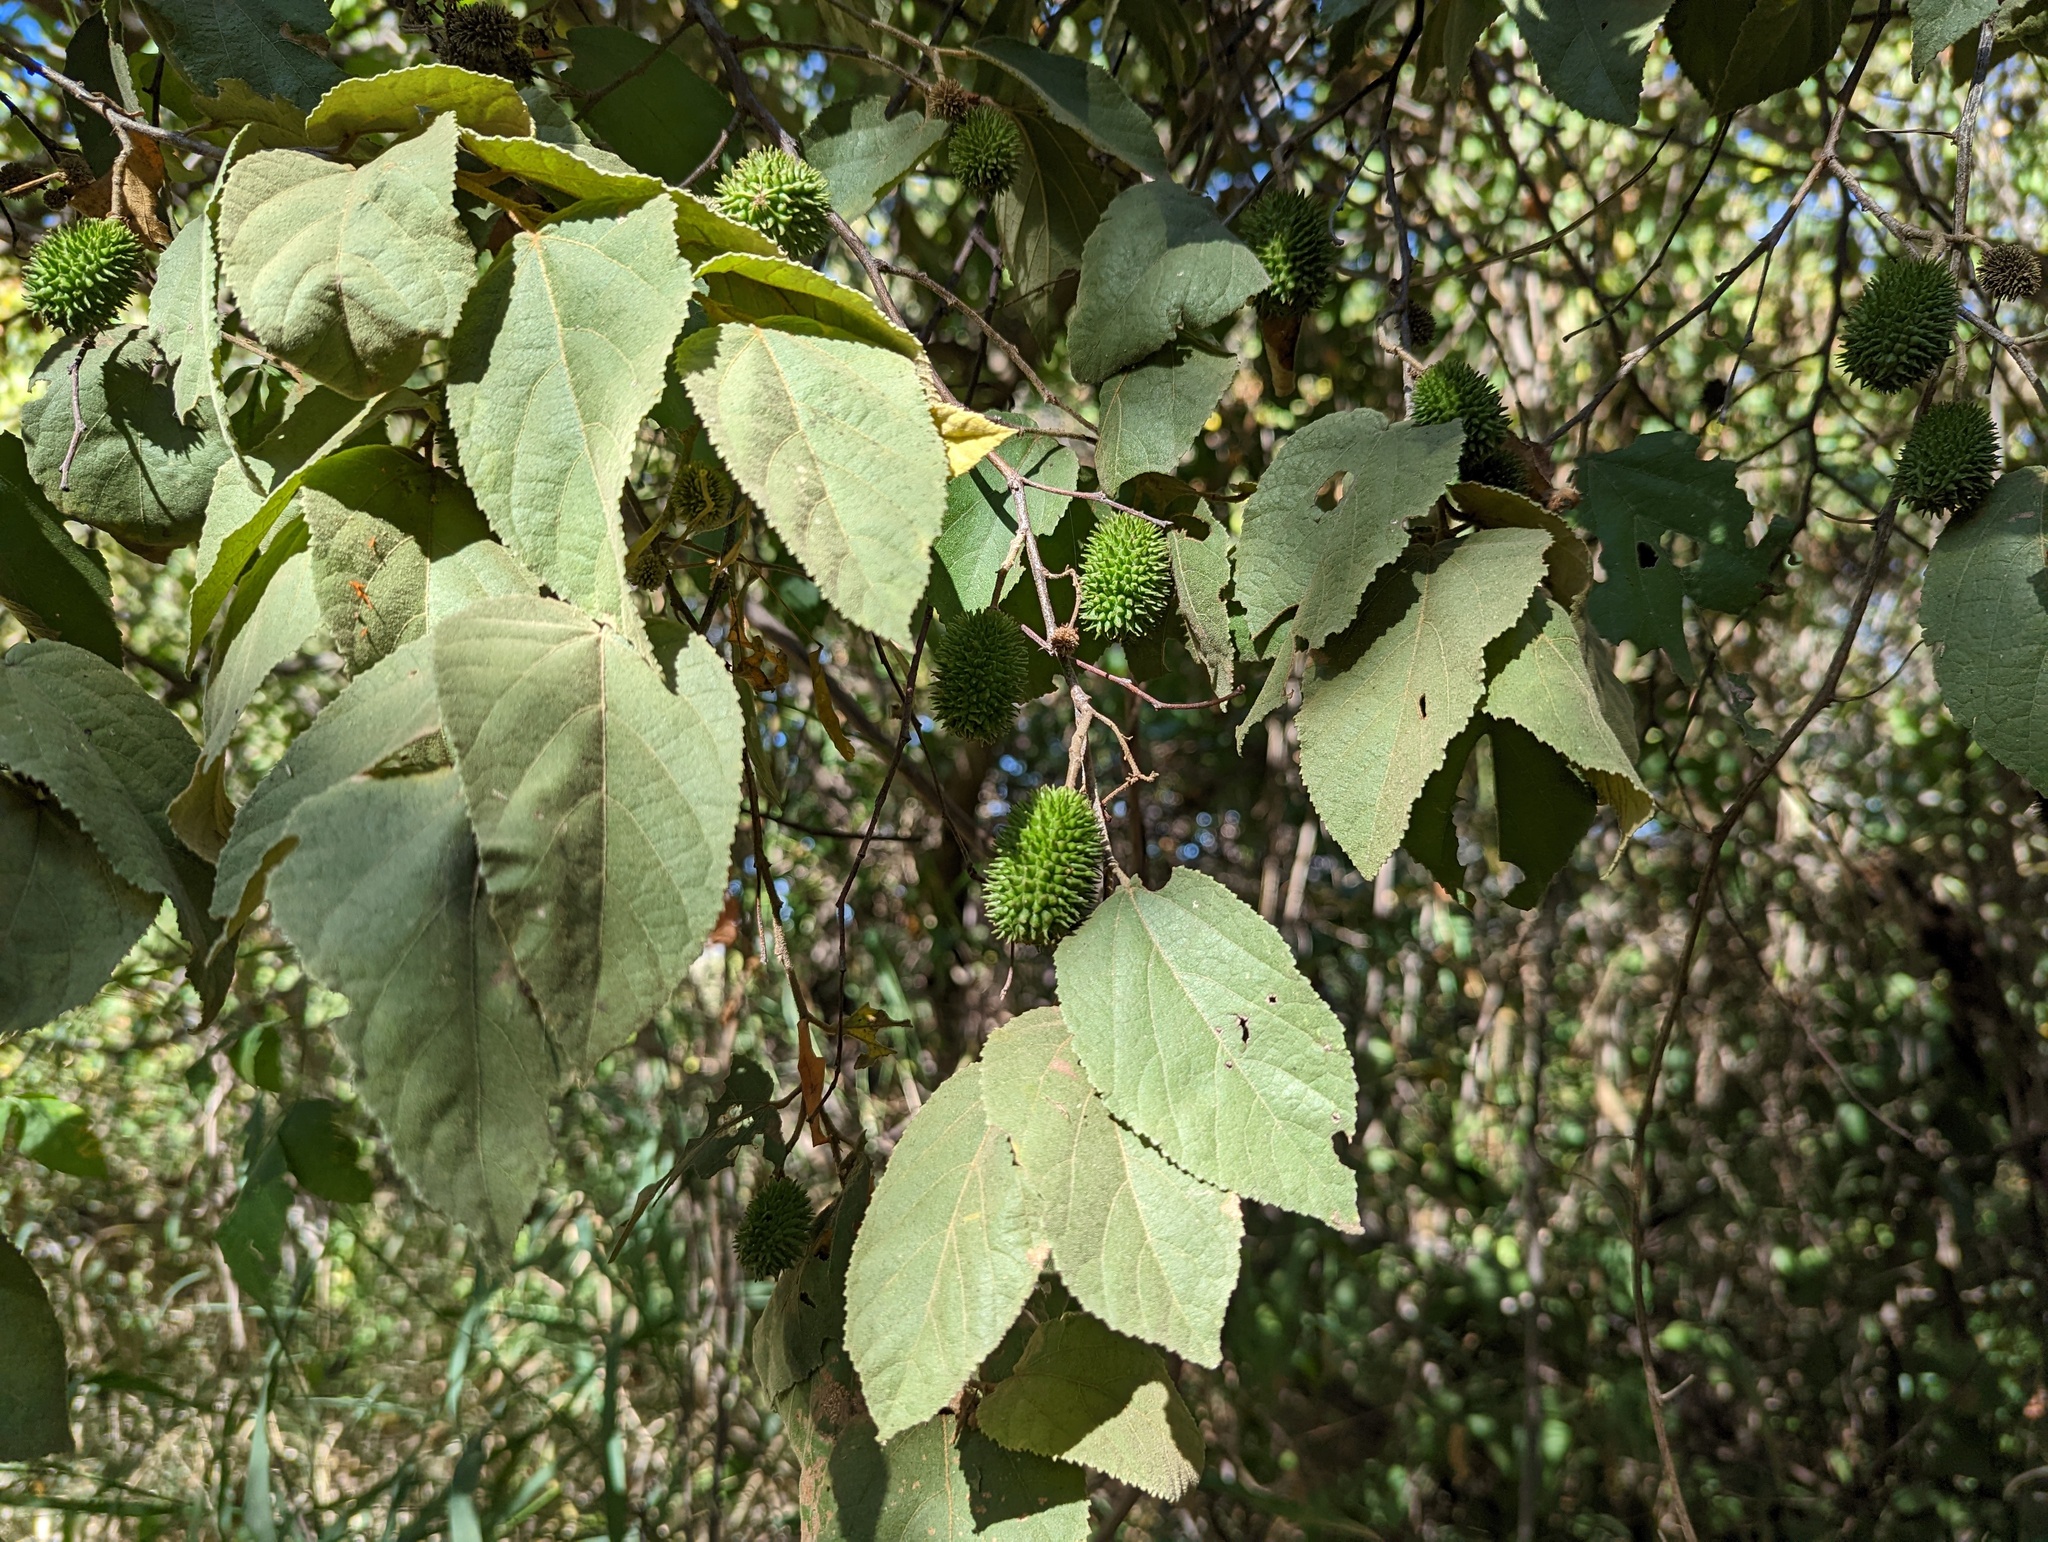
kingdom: Plantae
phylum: Tracheophyta
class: Magnoliopsida
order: Malvales
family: Malvaceae
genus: Guazuma
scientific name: Guazuma ulmifolia
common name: Bastard-cedar
